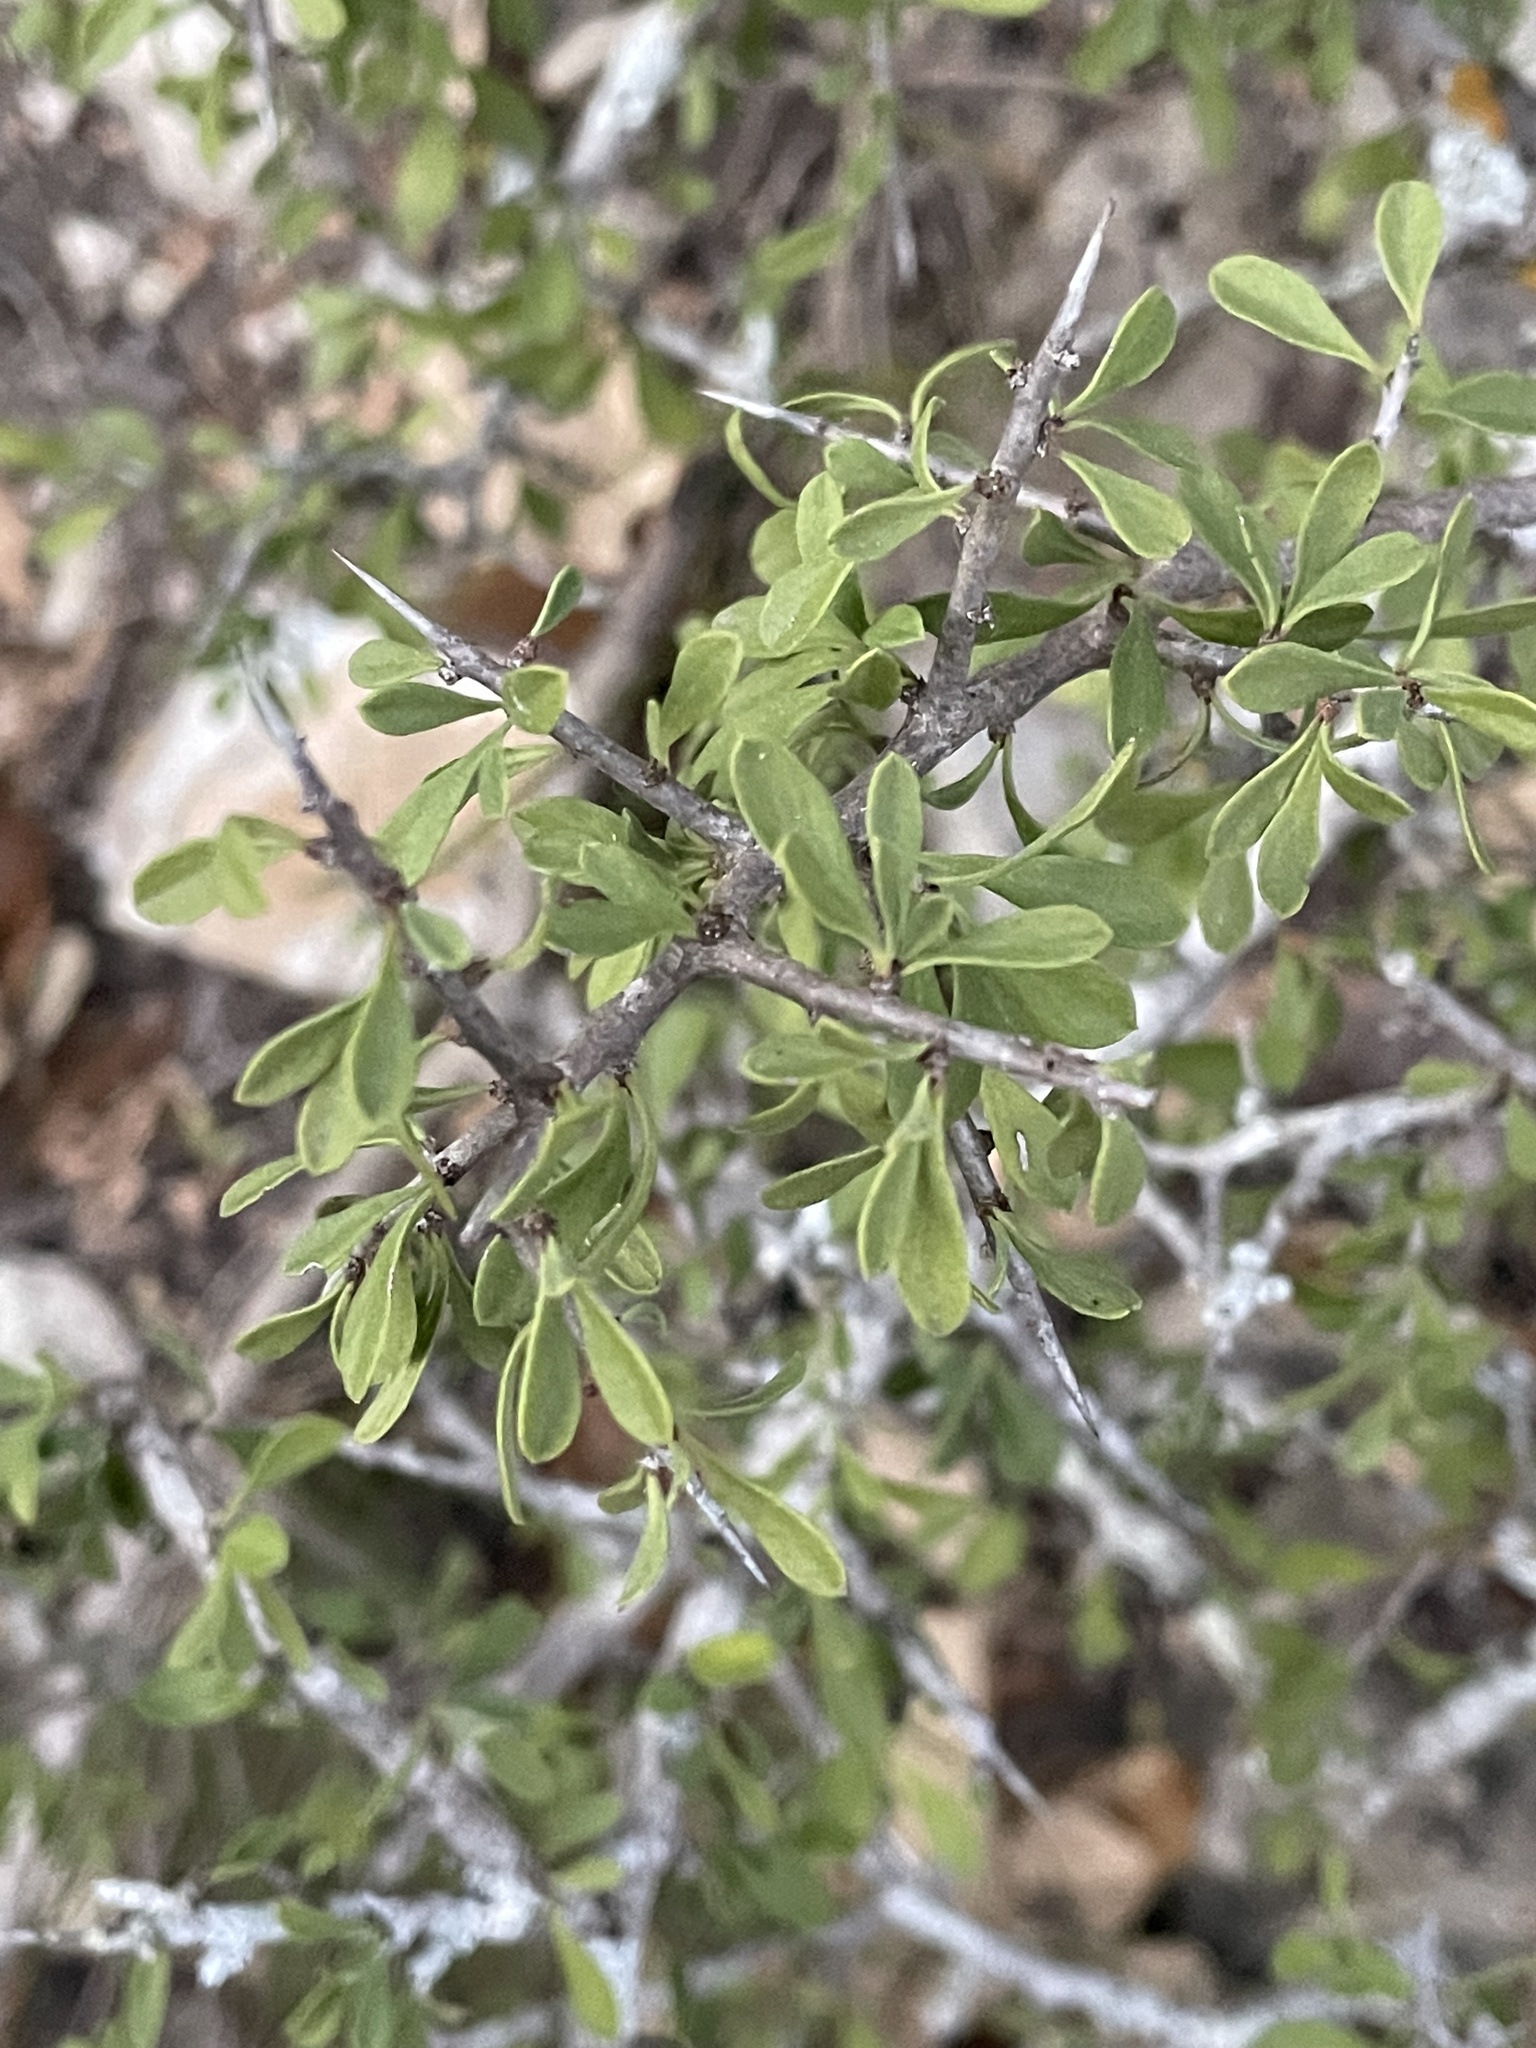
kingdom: Plantae
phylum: Tracheophyta
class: Magnoliopsida
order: Rosales
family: Rhamnaceae
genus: Condalia
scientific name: Condalia viridis
